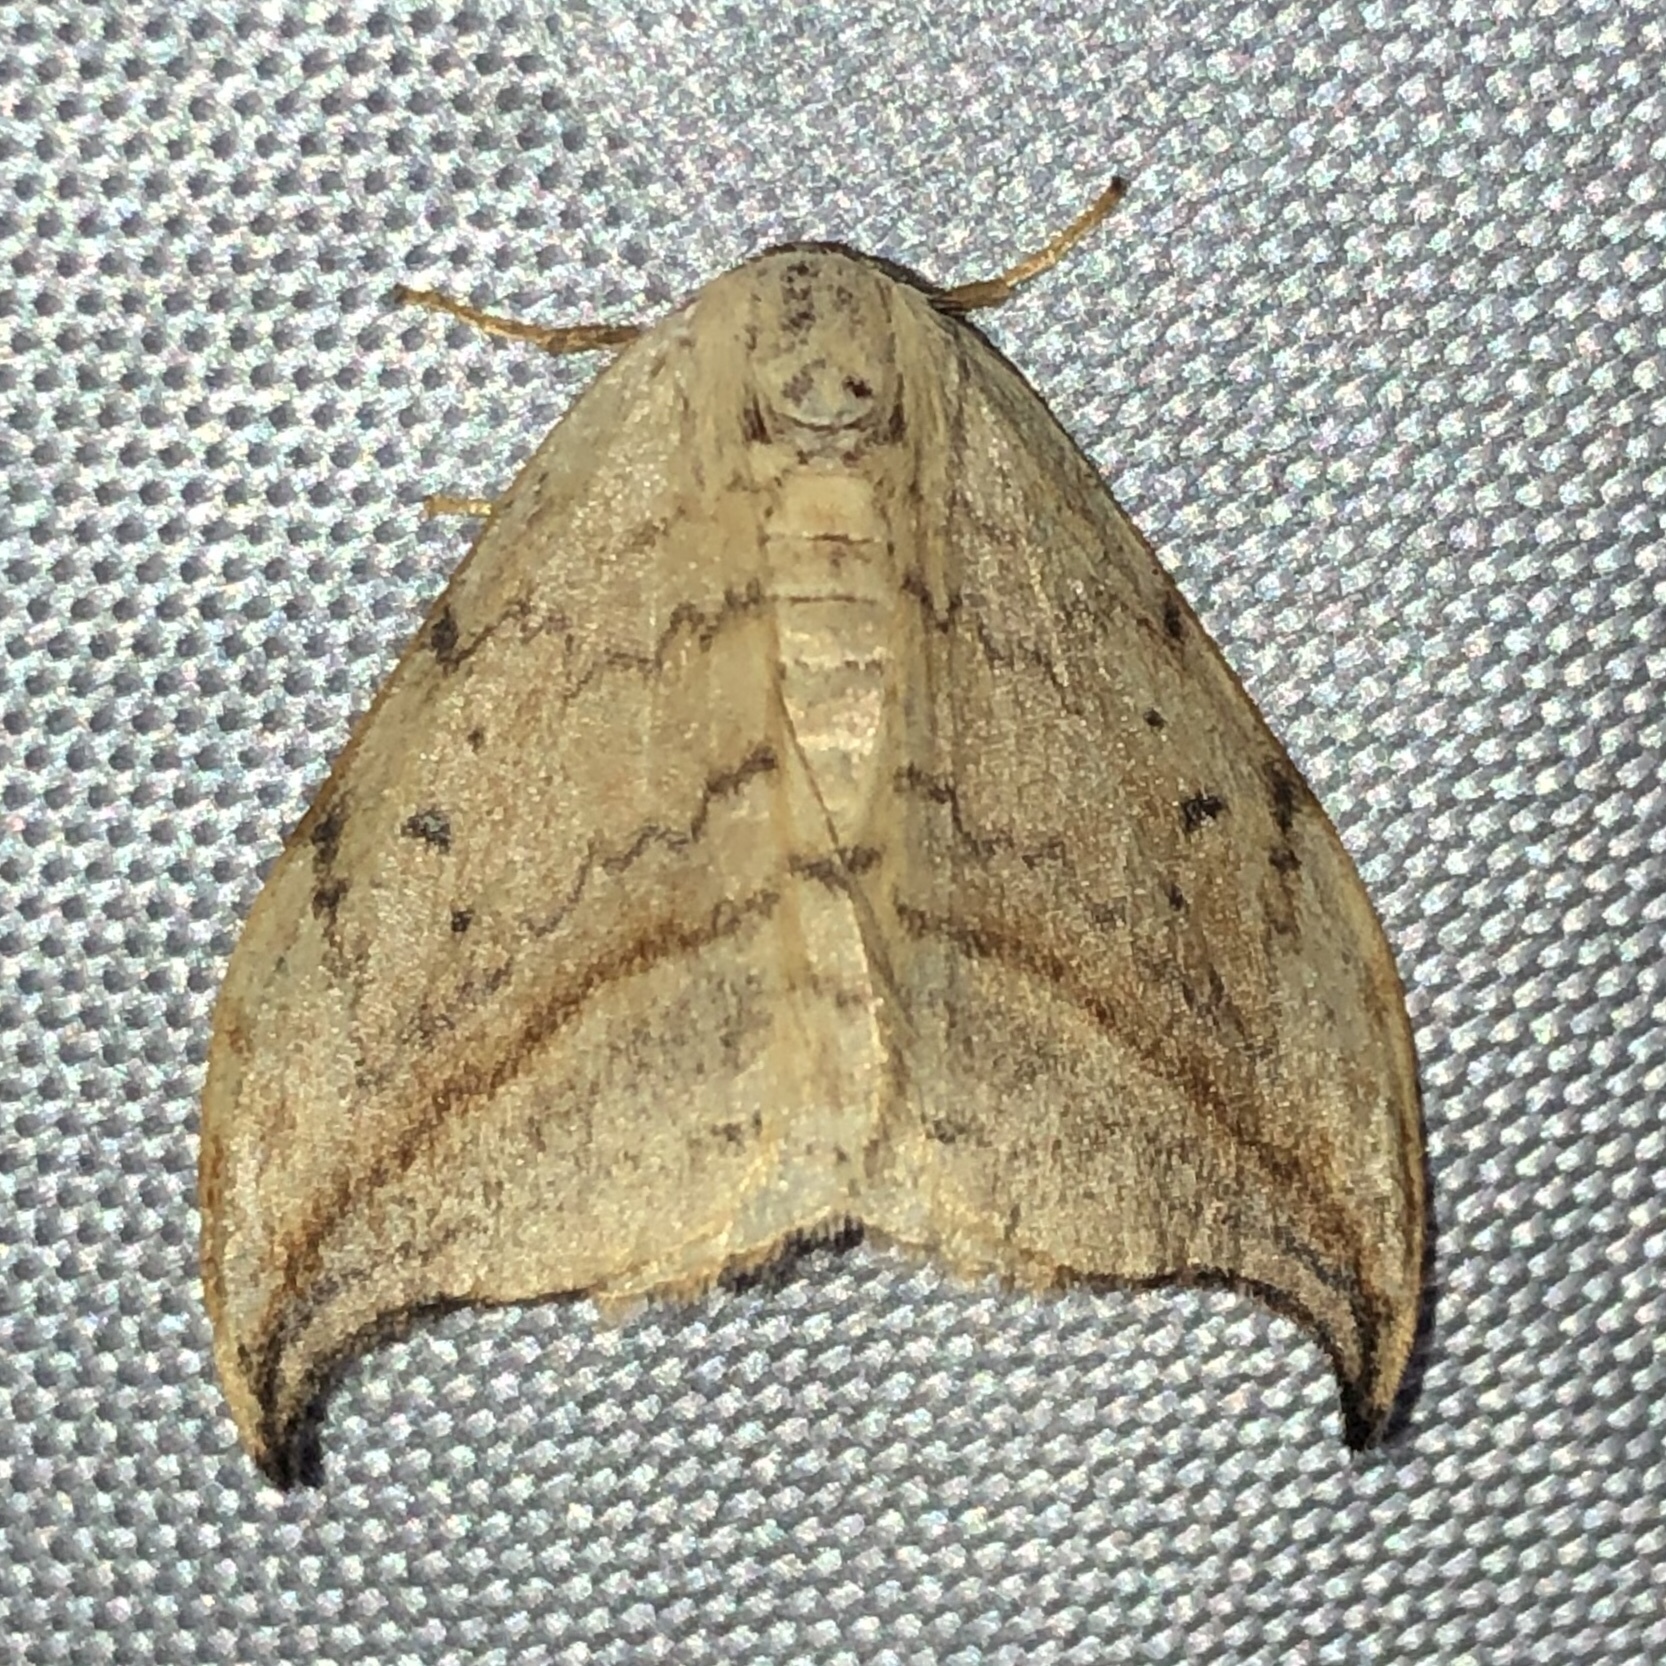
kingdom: Animalia
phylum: Arthropoda
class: Insecta
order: Lepidoptera
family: Drepanidae
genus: Drepana
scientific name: Drepana arcuata
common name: Arched hooktip moth
